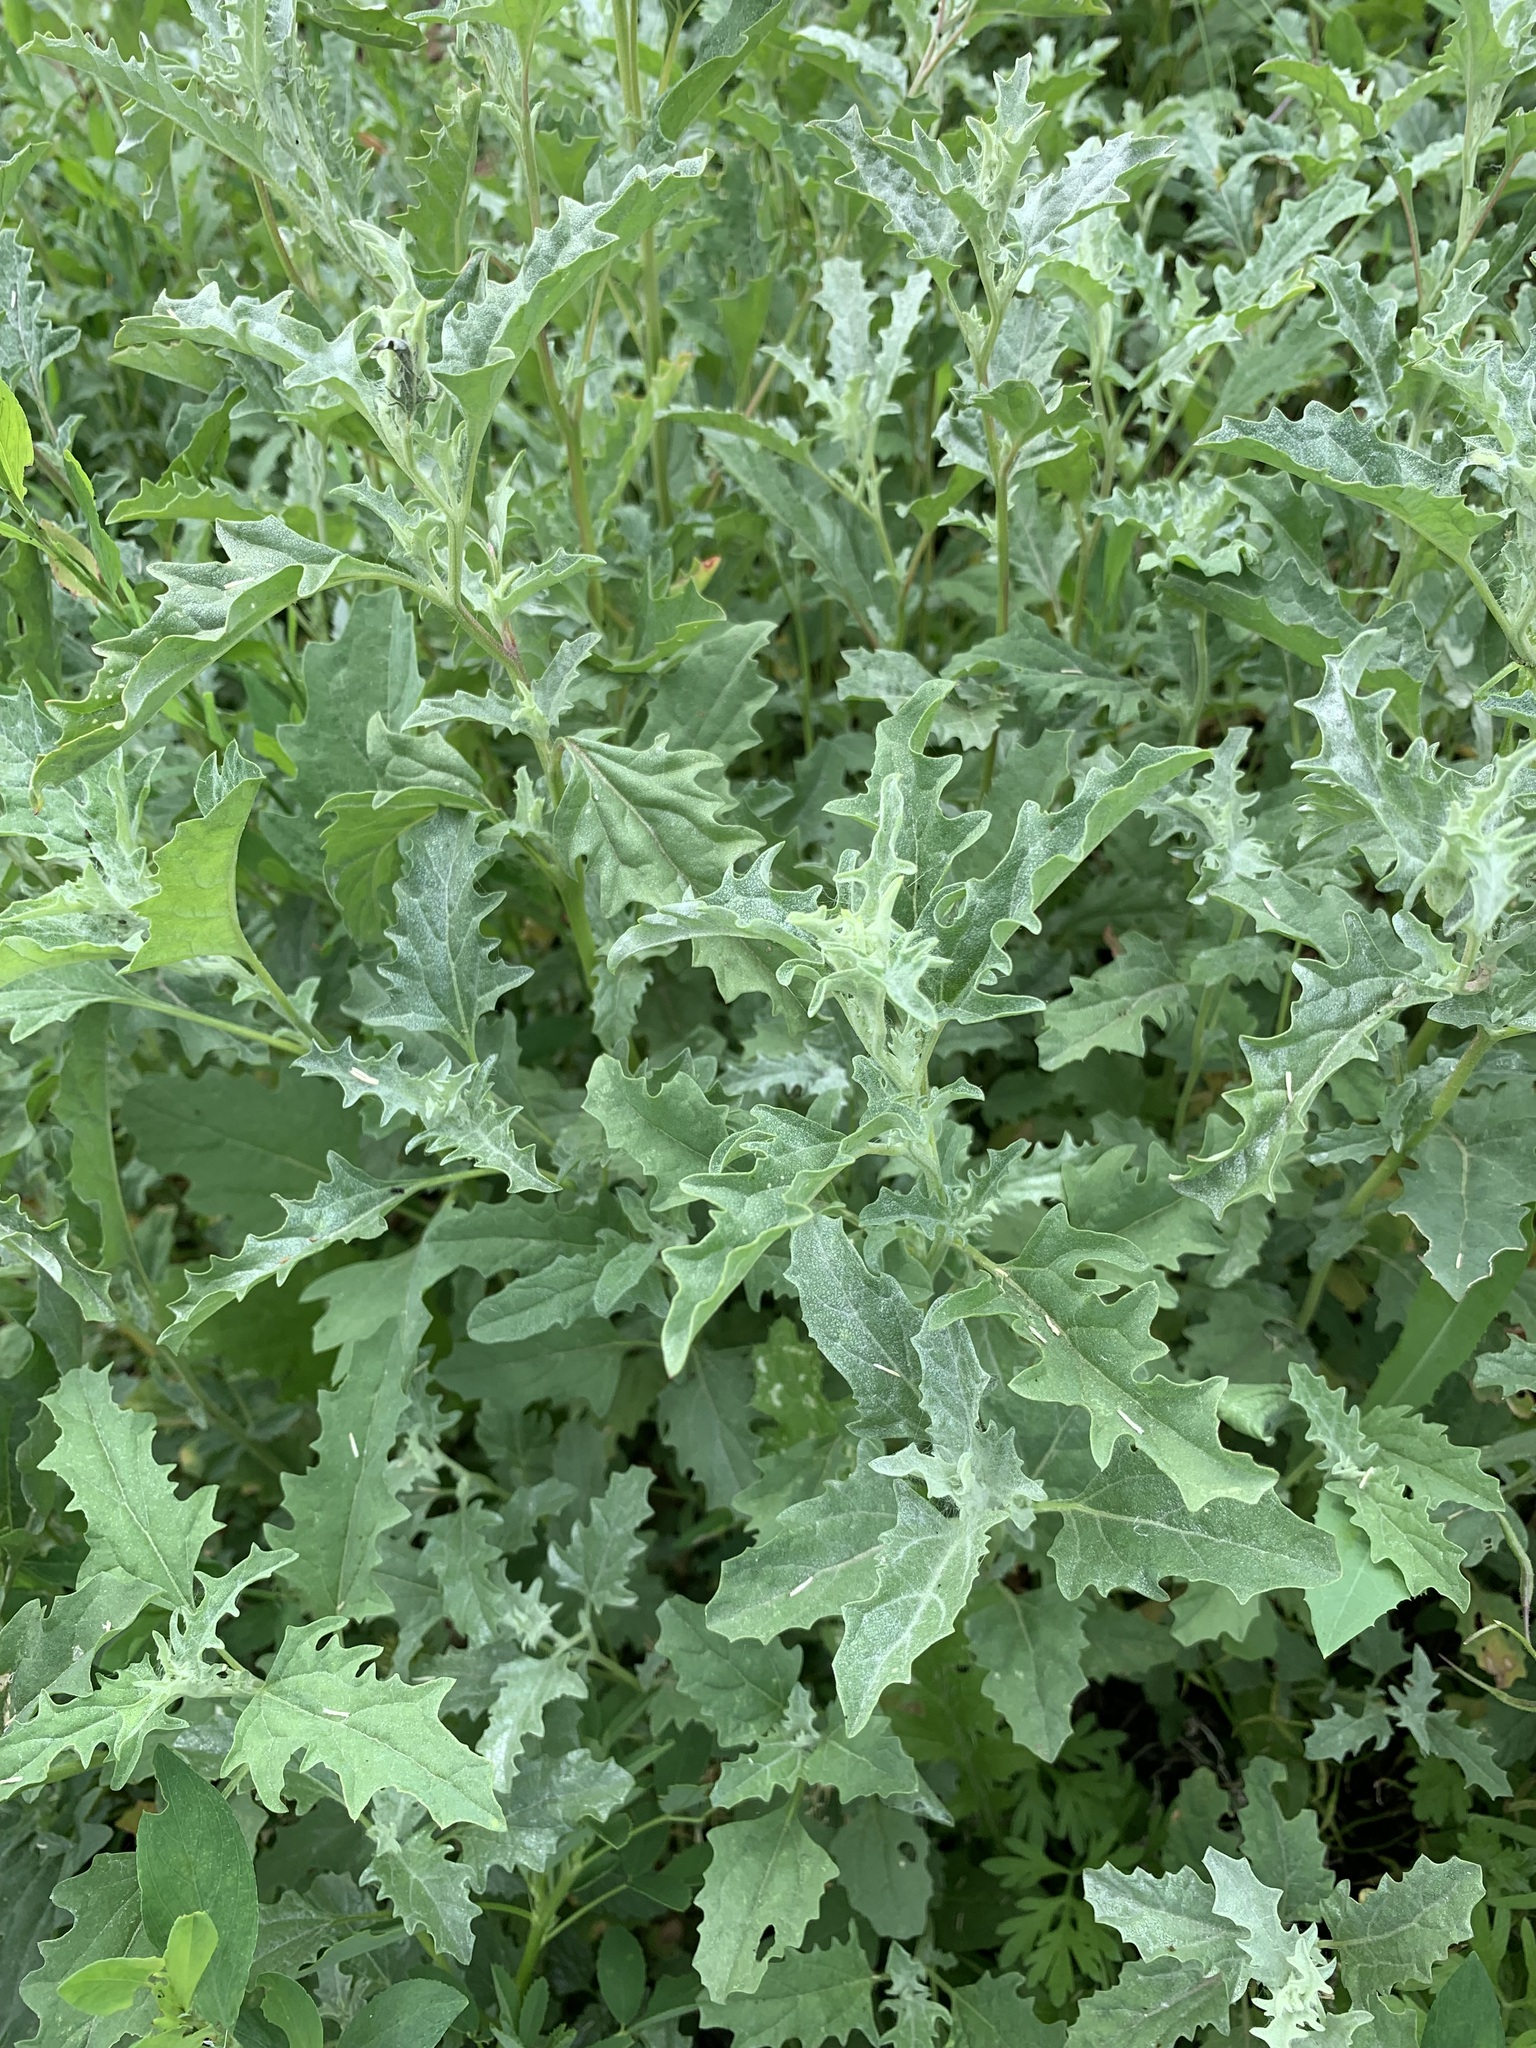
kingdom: Plantae
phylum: Tracheophyta
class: Magnoliopsida
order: Caryophyllales
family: Amaranthaceae
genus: Atriplex
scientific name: Atriplex tatarica
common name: Tatarian orache
